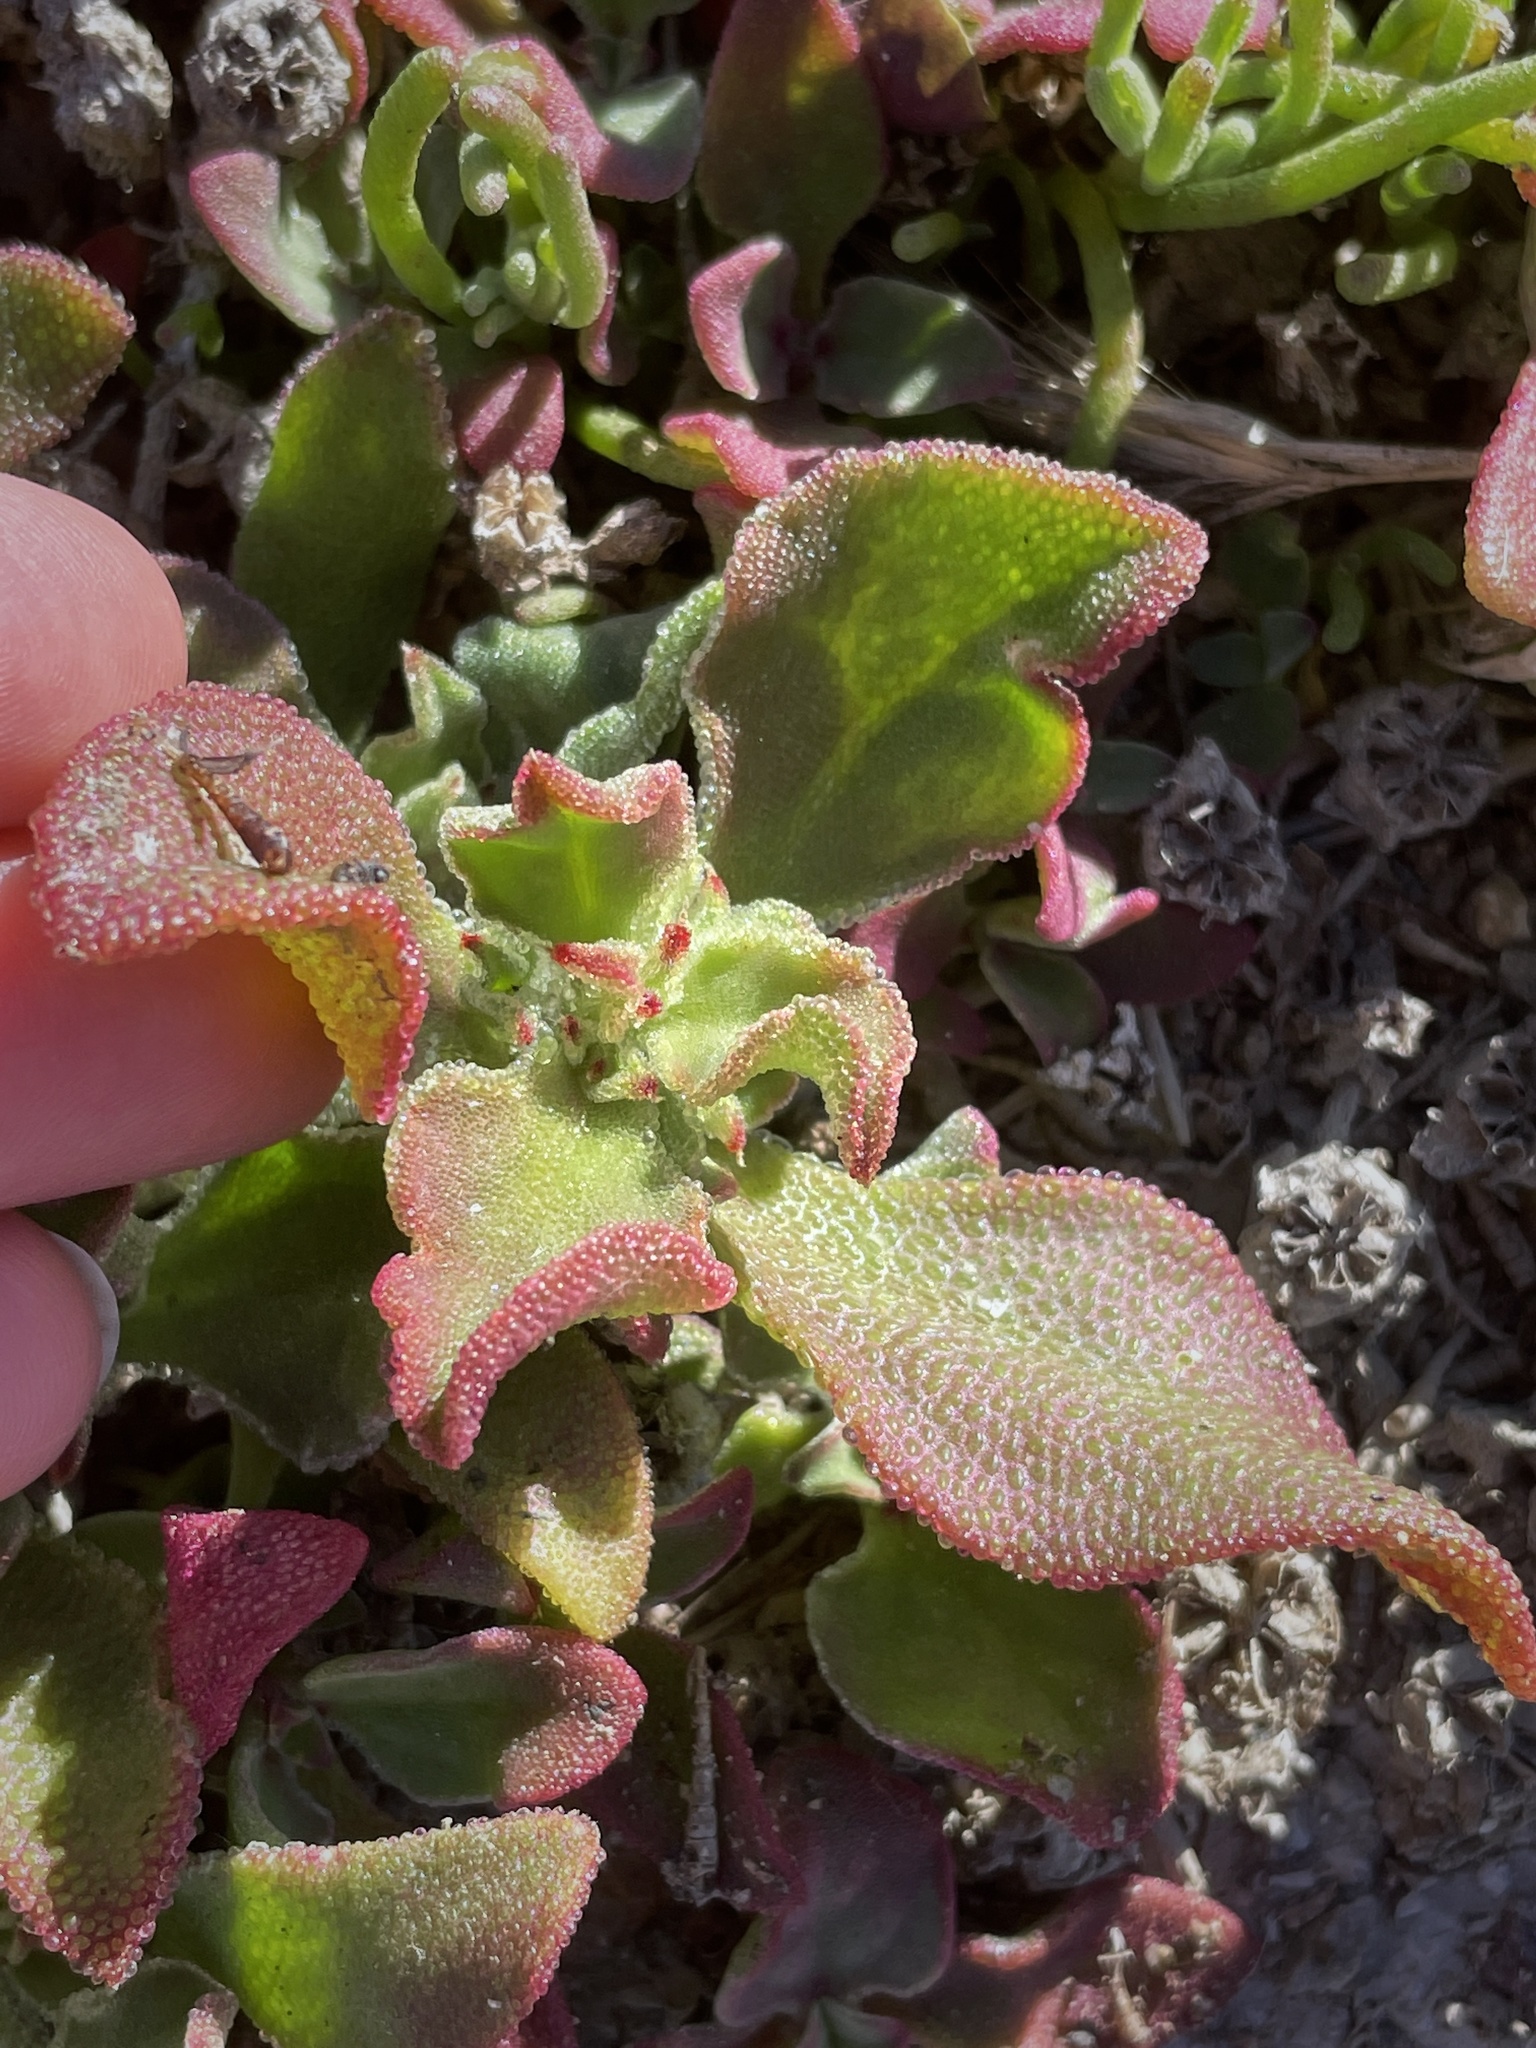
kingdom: Plantae
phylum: Tracheophyta
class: Magnoliopsida
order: Caryophyllales
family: Aizoaceae
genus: Mesembryanthemum
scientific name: Mesembryanthemum crystallinum
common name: Common iceplant
